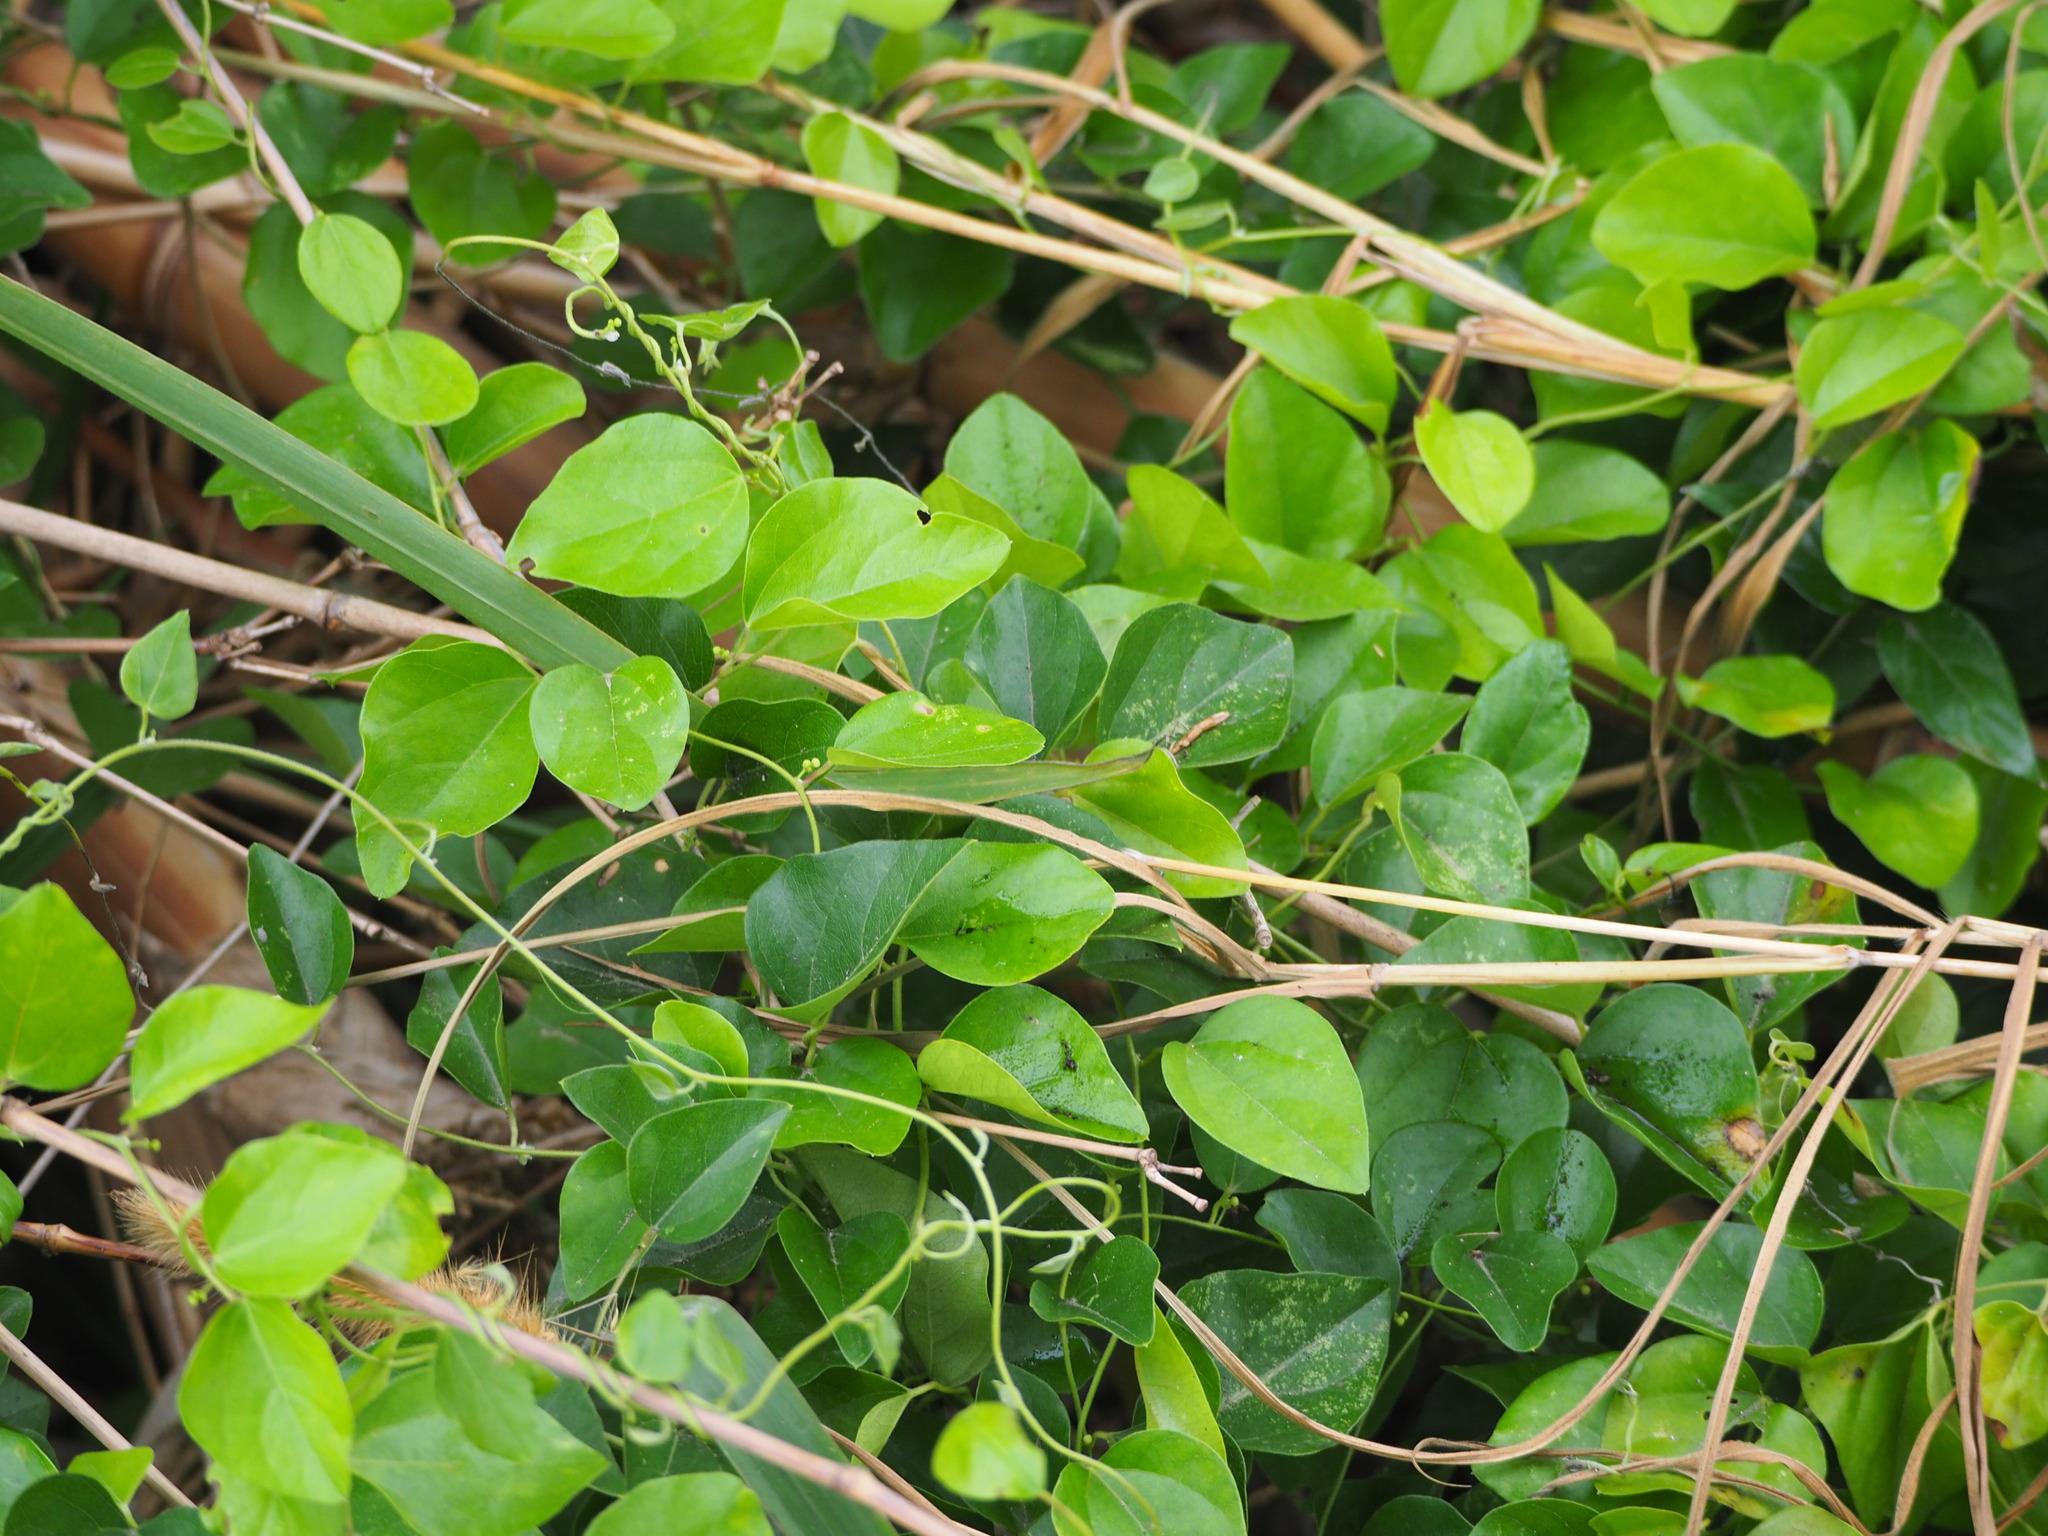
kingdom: Plantae
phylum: Tracheophyta
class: Magnoliopsida
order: Ranunculales
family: Menispermaceae
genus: Cocculus
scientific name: Cocculus orbiculatus
